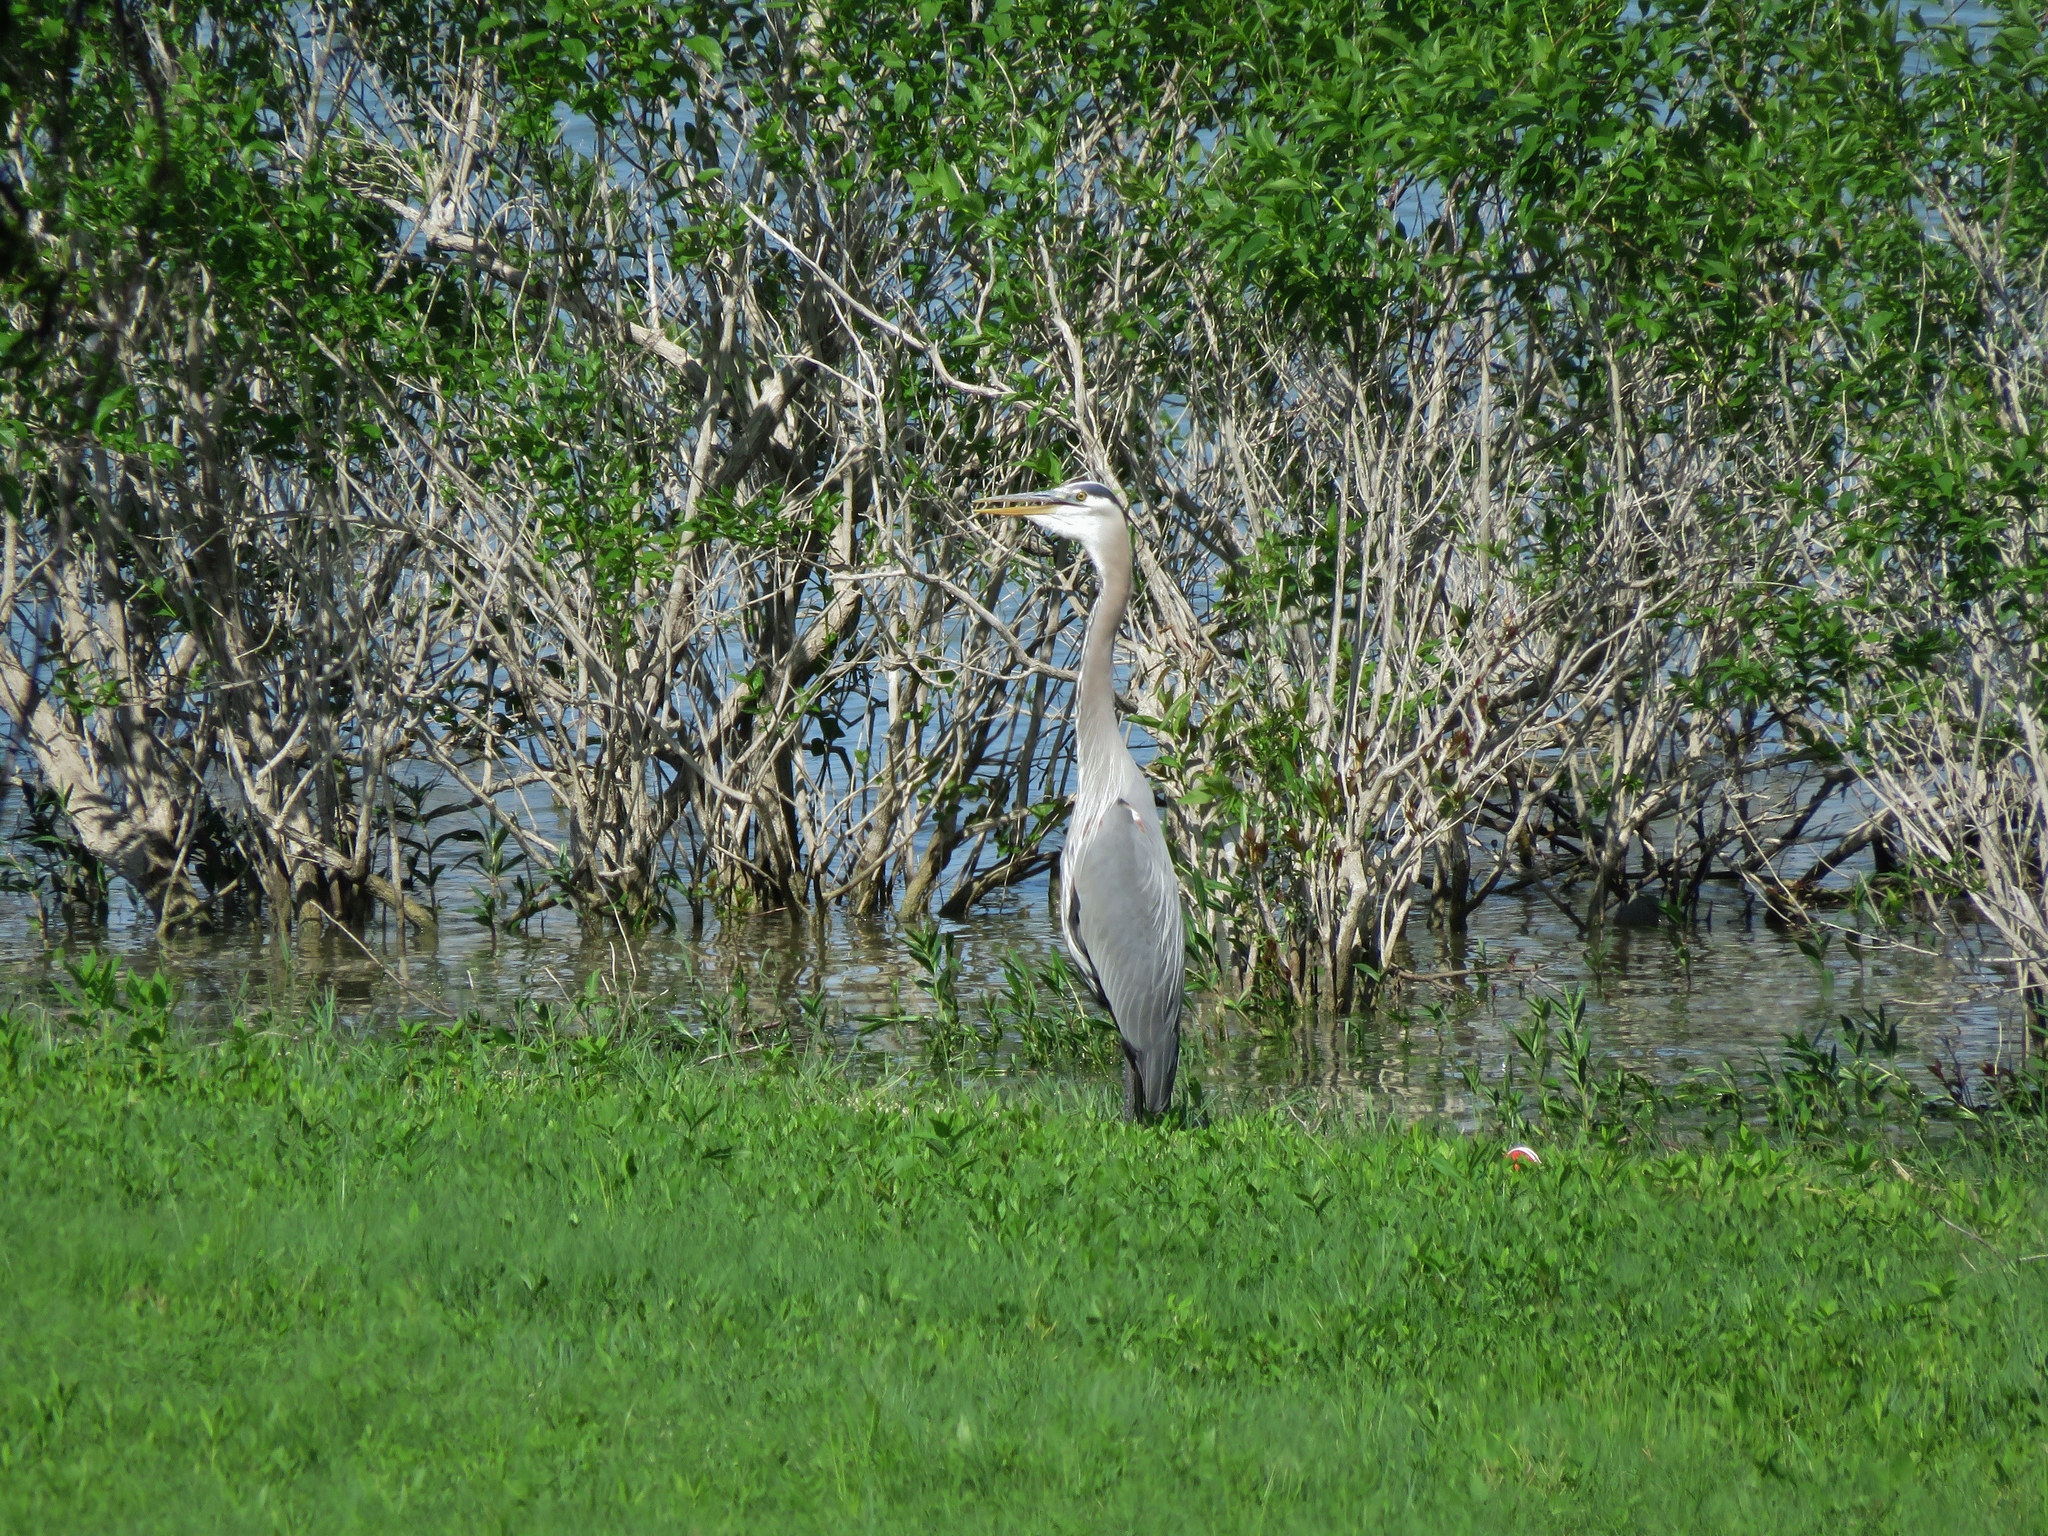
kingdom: Animalia
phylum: Chordata
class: Aves
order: Pelecaniformes
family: Ardeidae
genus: Ardea
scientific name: Ardea herodias
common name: Great blue heron
